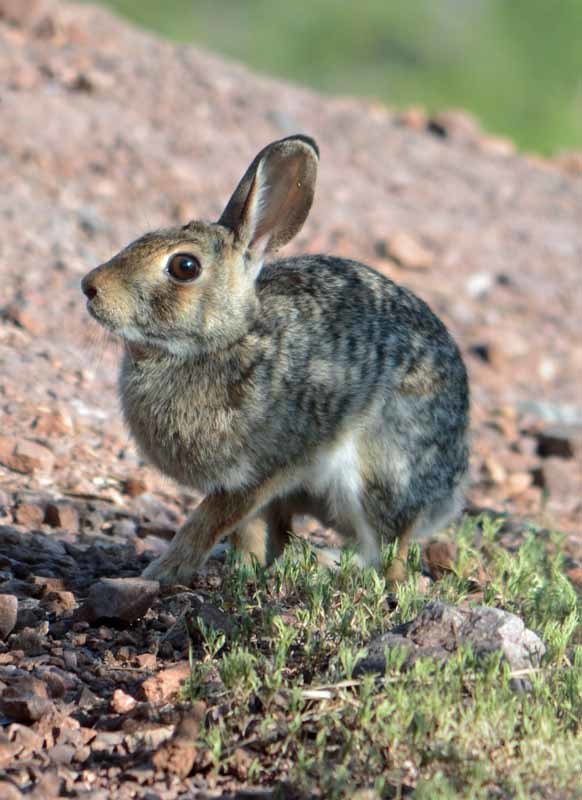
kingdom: Animalia
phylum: Chordata
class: Mammalia
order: Lagomorpha
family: Leporidae
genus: Sylvilagus
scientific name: Sylvilagus floridanus
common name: Eastern cottontail
